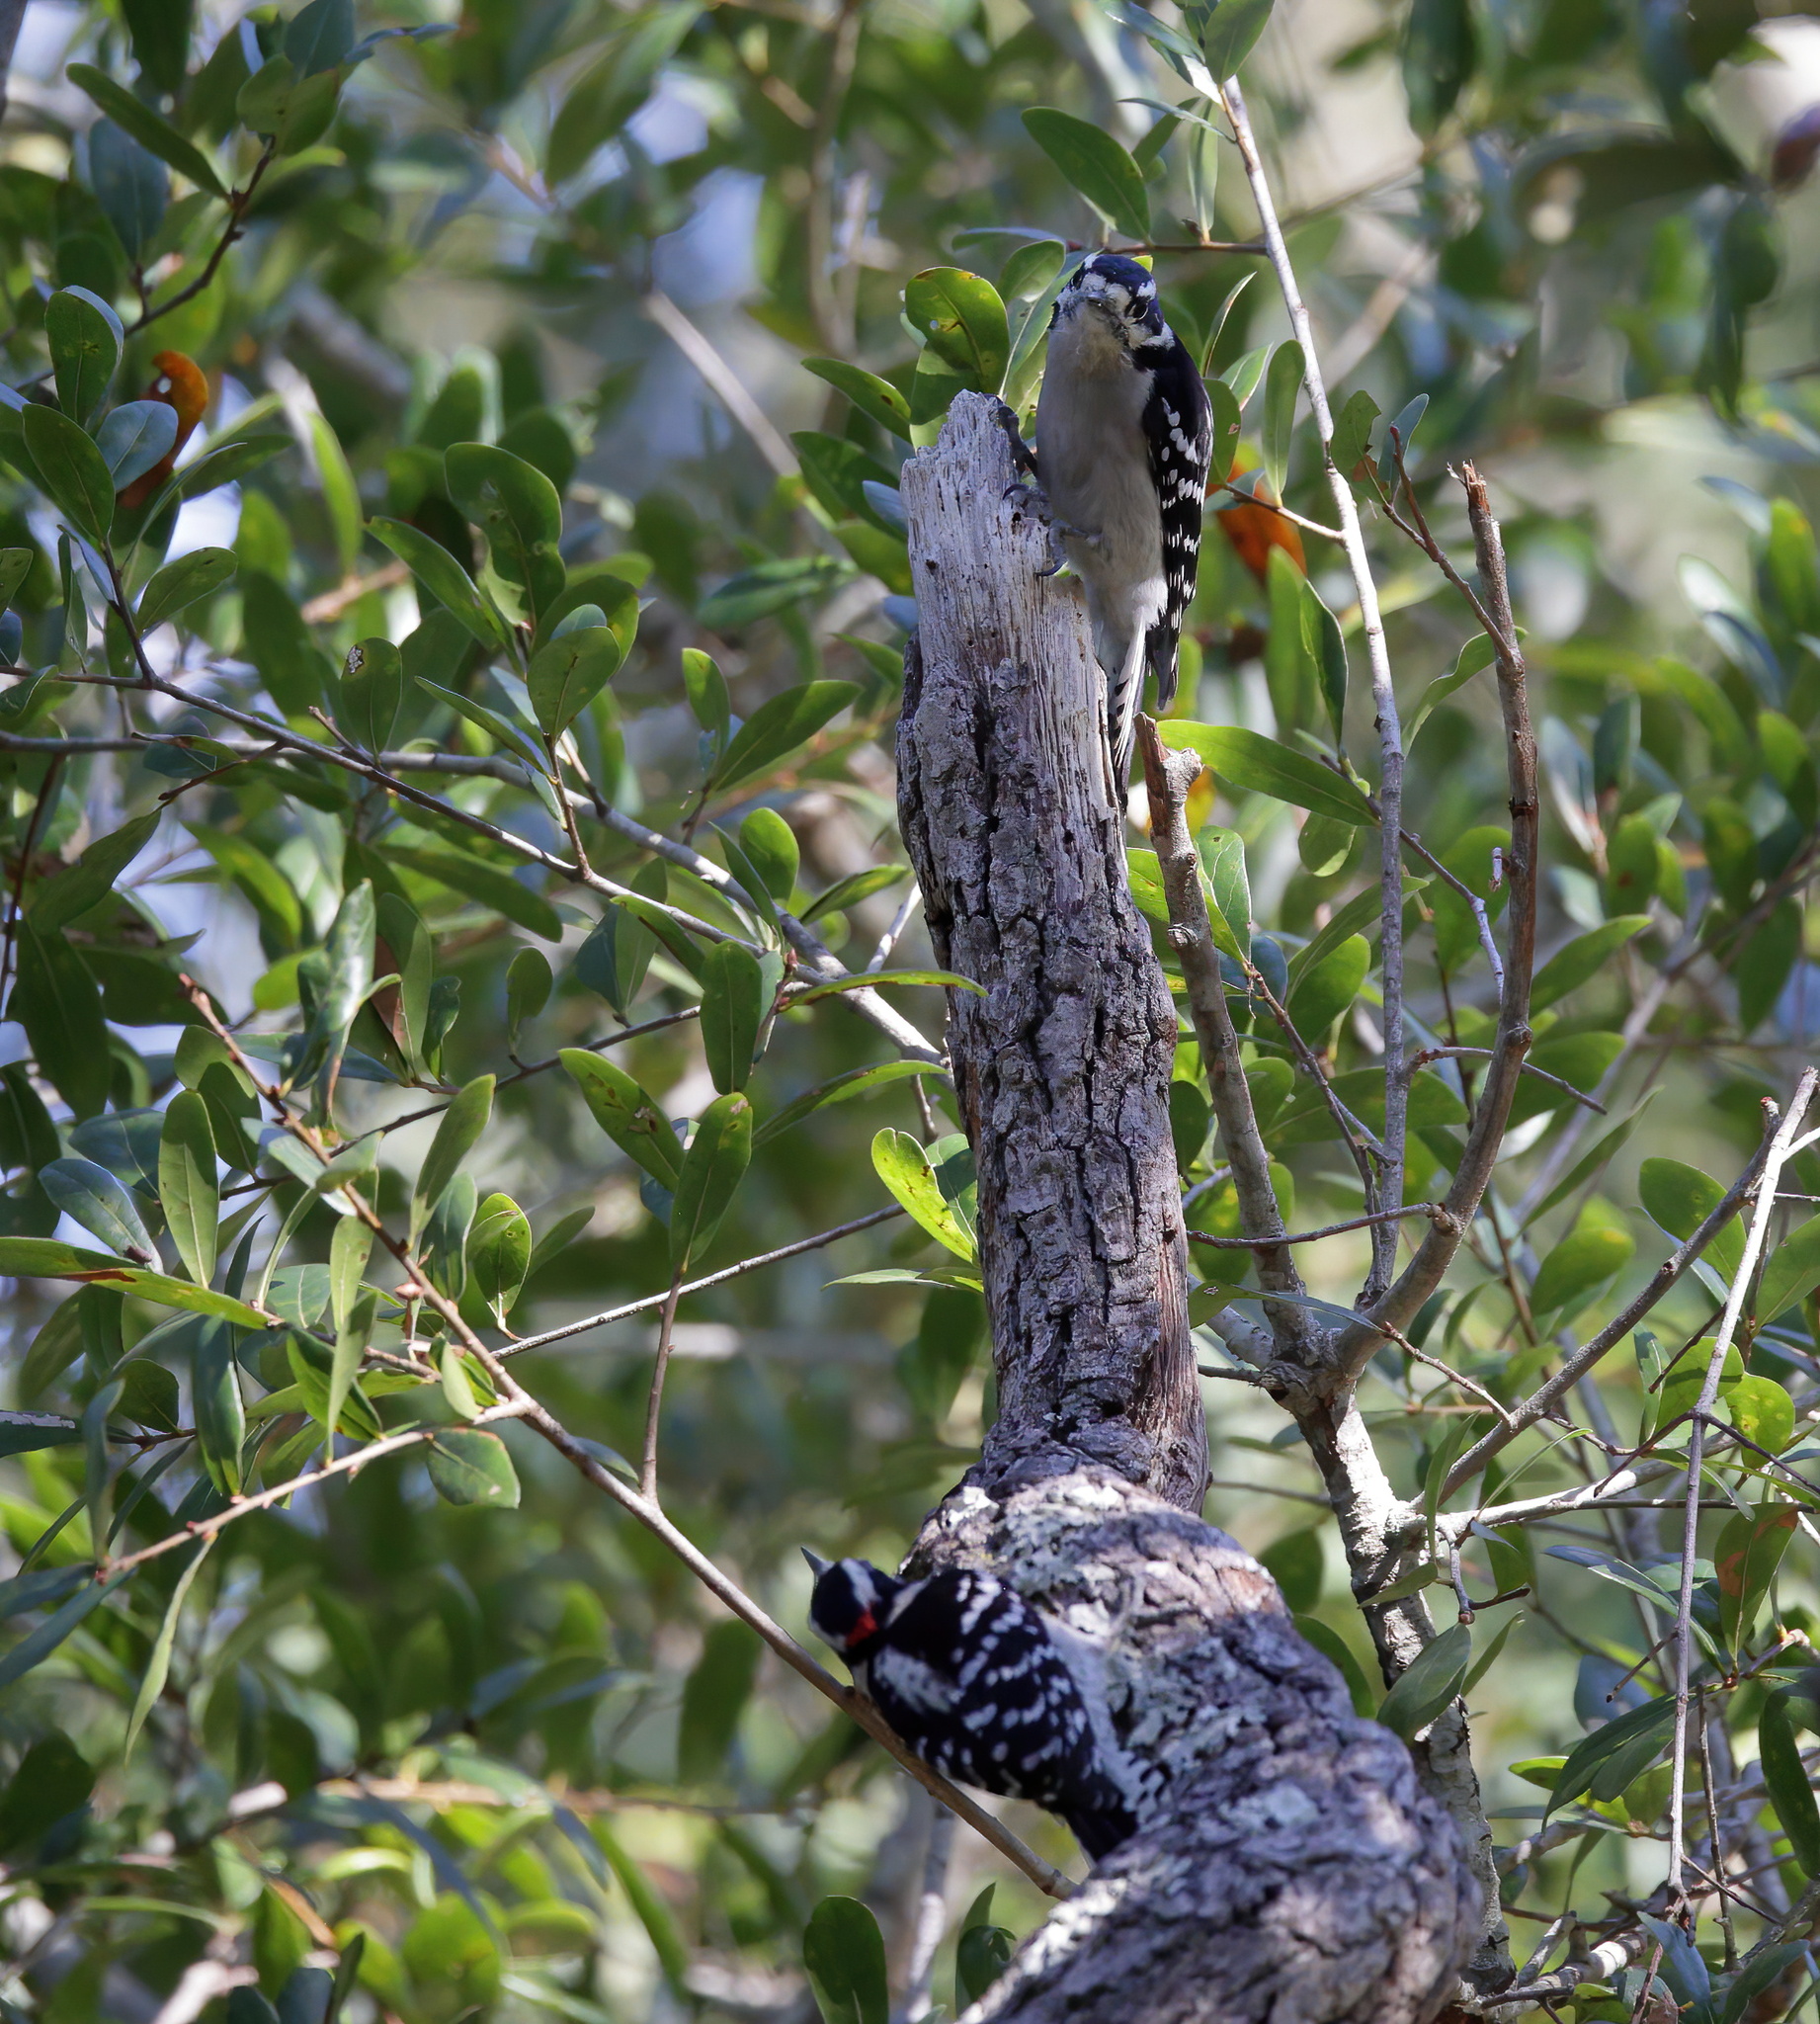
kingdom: Animalia
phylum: Chordata
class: Aves
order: Piciformes
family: Picidae
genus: Dryobates
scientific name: Dryobates pubescens
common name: Downy woodpecker
